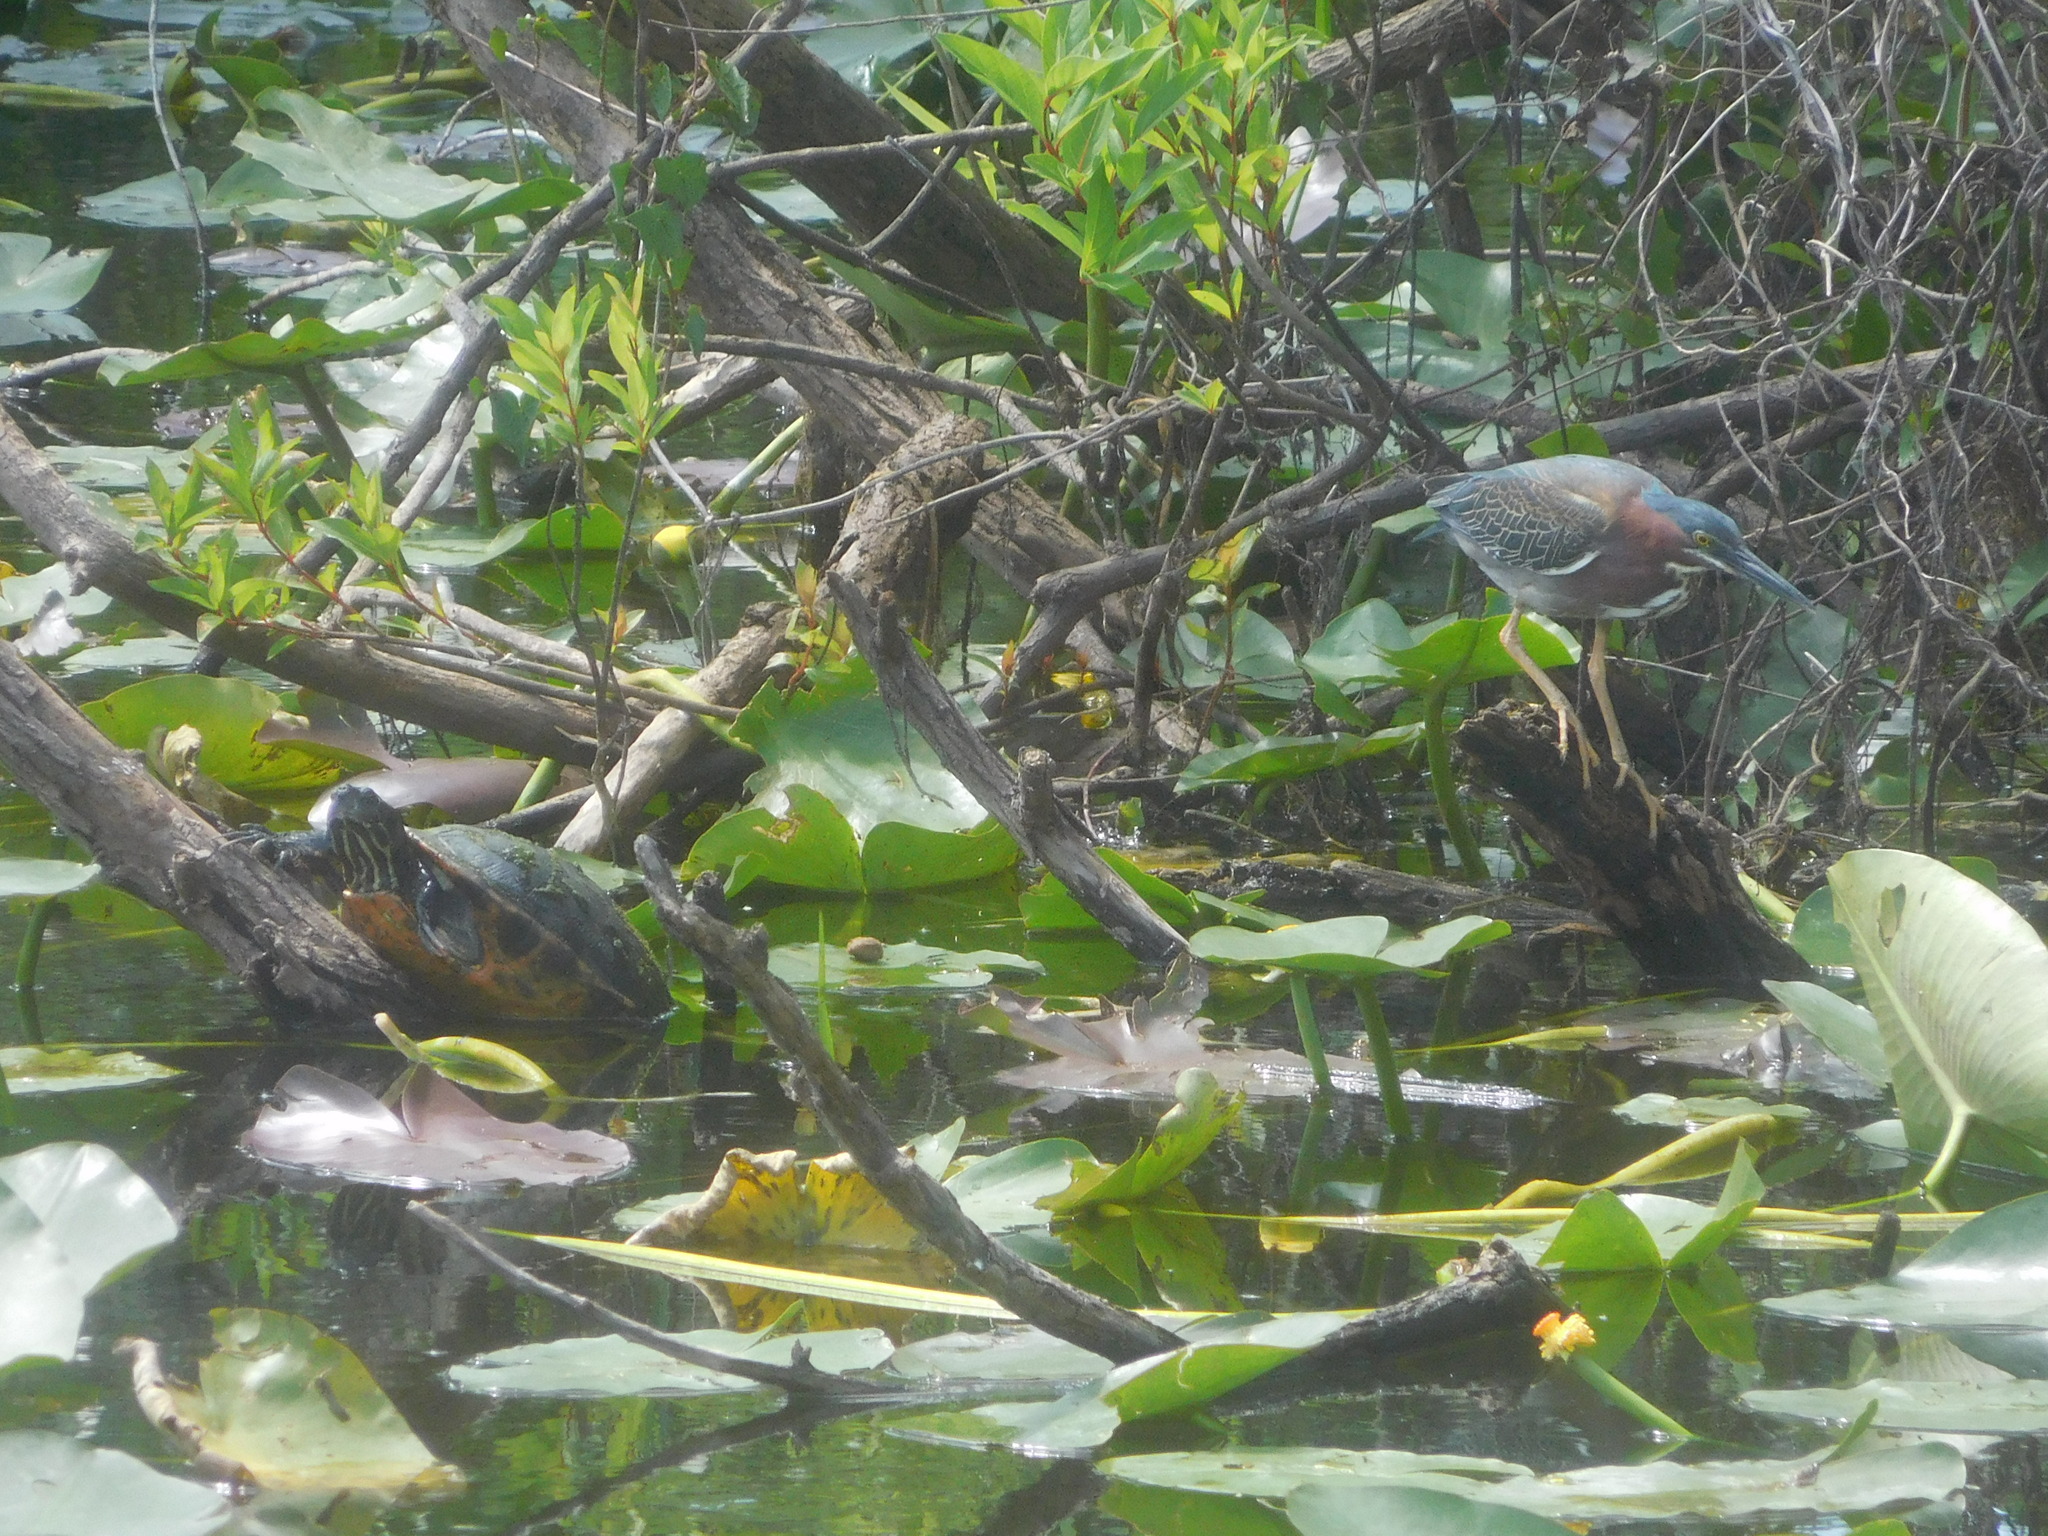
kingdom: Animalia
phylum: Chordata
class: Aves
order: Pelecaniformes
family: Ardeidae
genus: Butorides
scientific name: Butorides virescens
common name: Green heron
